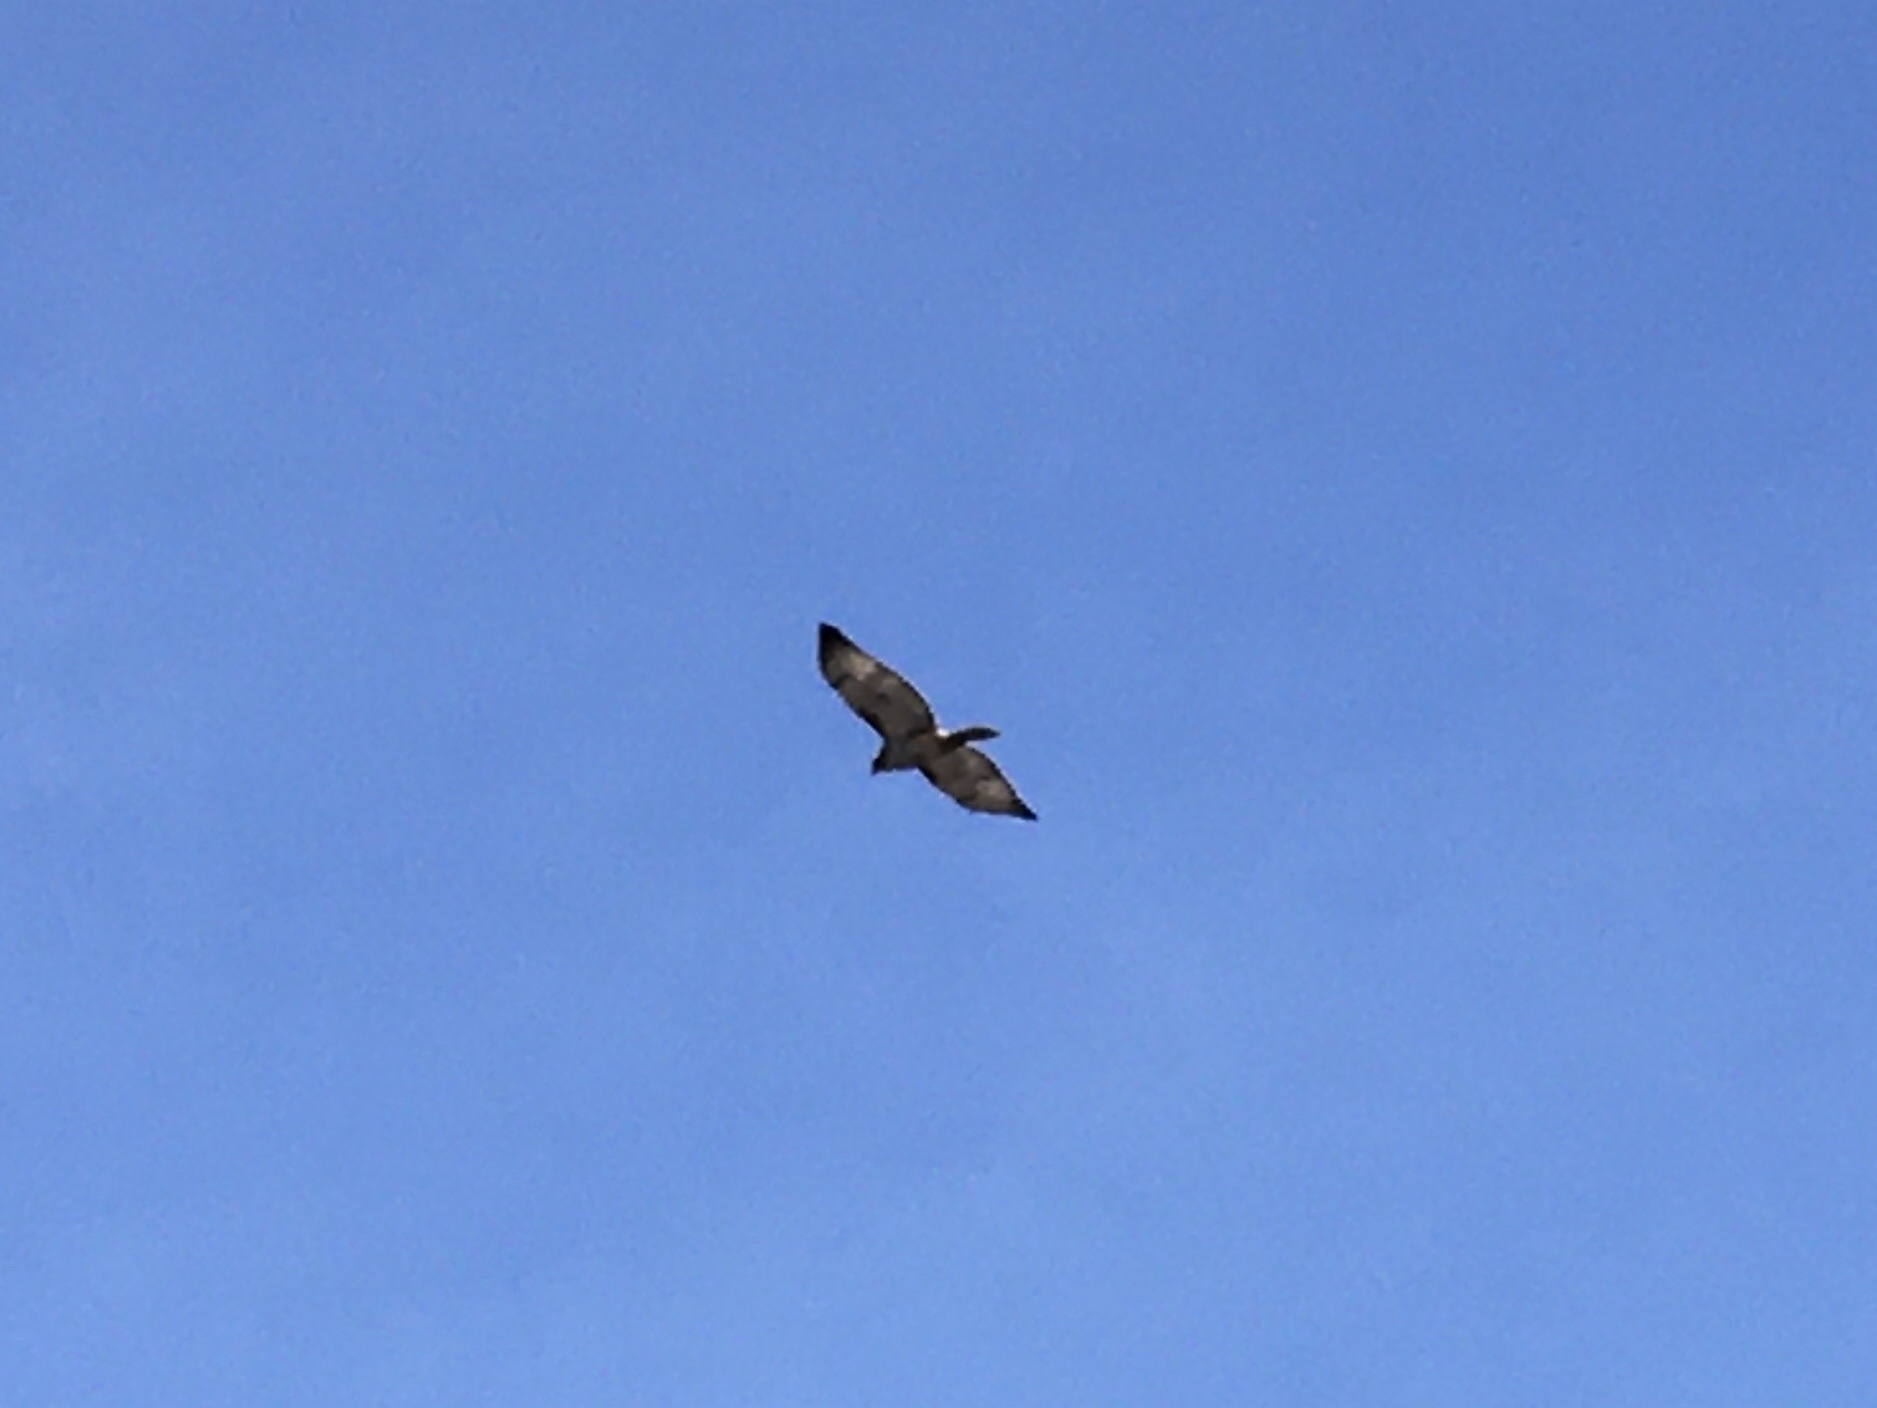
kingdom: Animalia
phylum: Chordata
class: Aves
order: Accipitriformes
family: Accipitridae
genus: Buteo
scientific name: Buteo jamaicensis
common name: Red-tailed hawk
